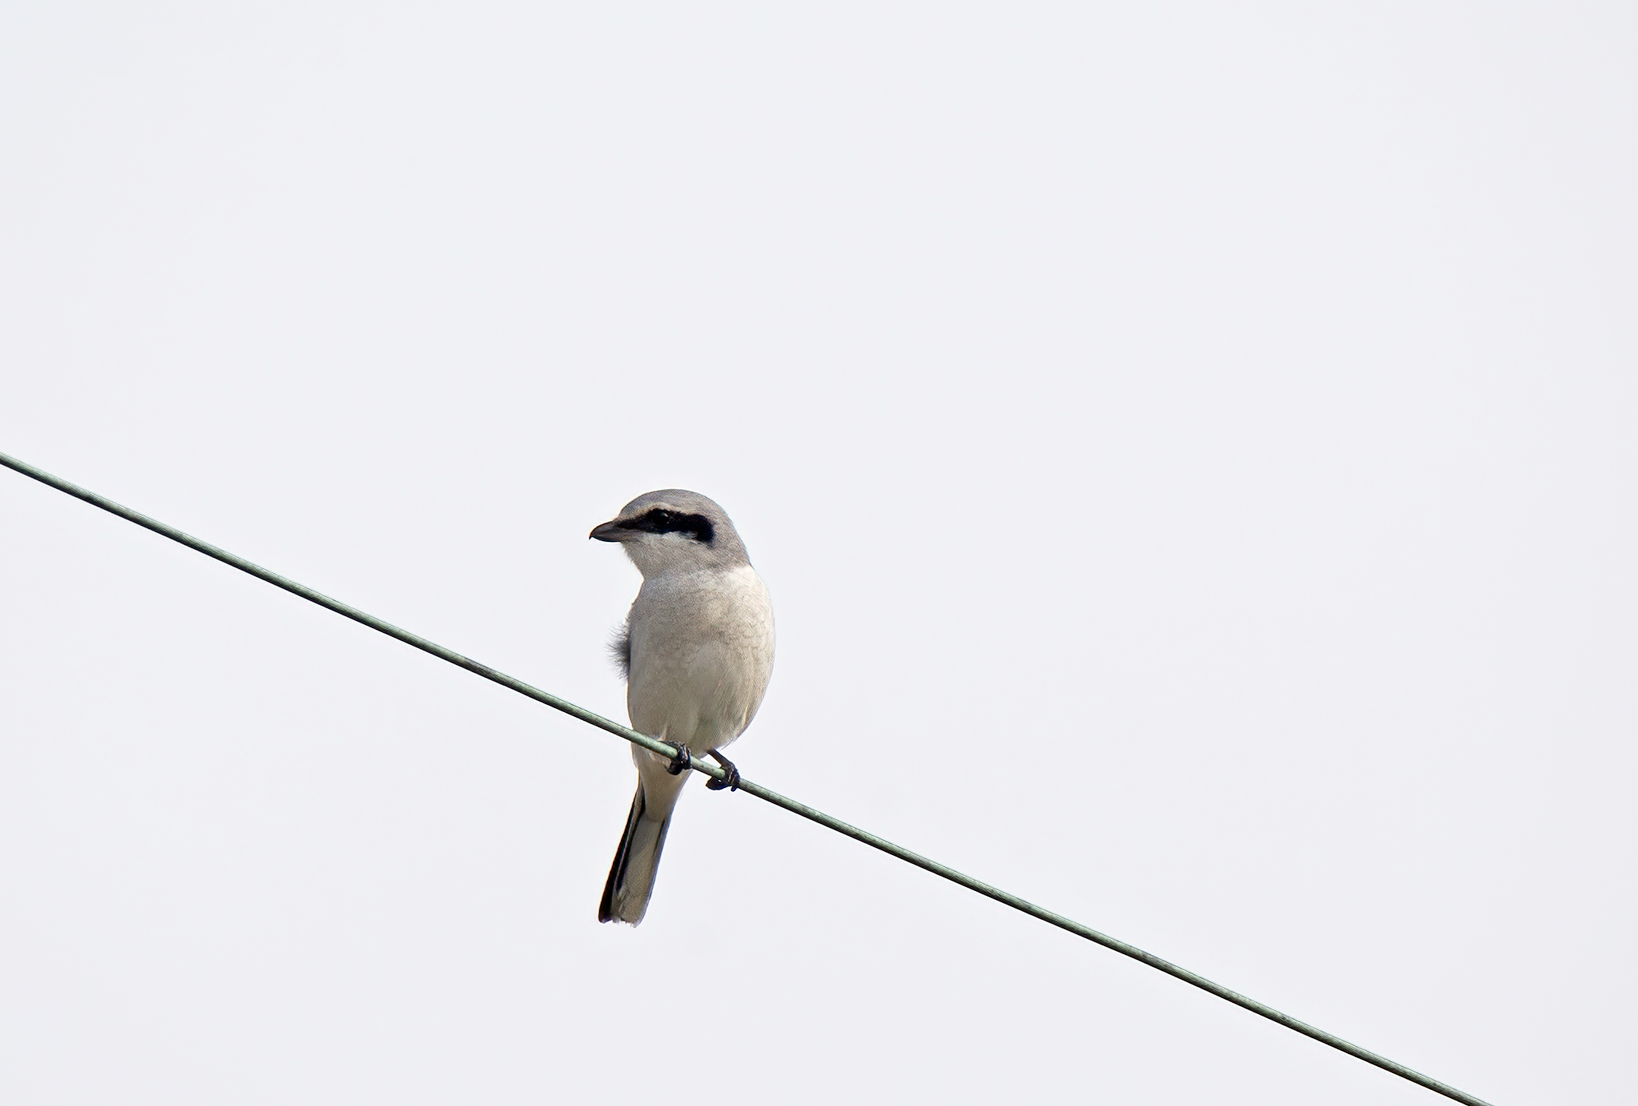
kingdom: Animalia
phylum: Chordata
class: Aves
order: Passeriformes
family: Laniidae
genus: Lanius
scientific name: Lanius excubitor
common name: Great grey shrike
